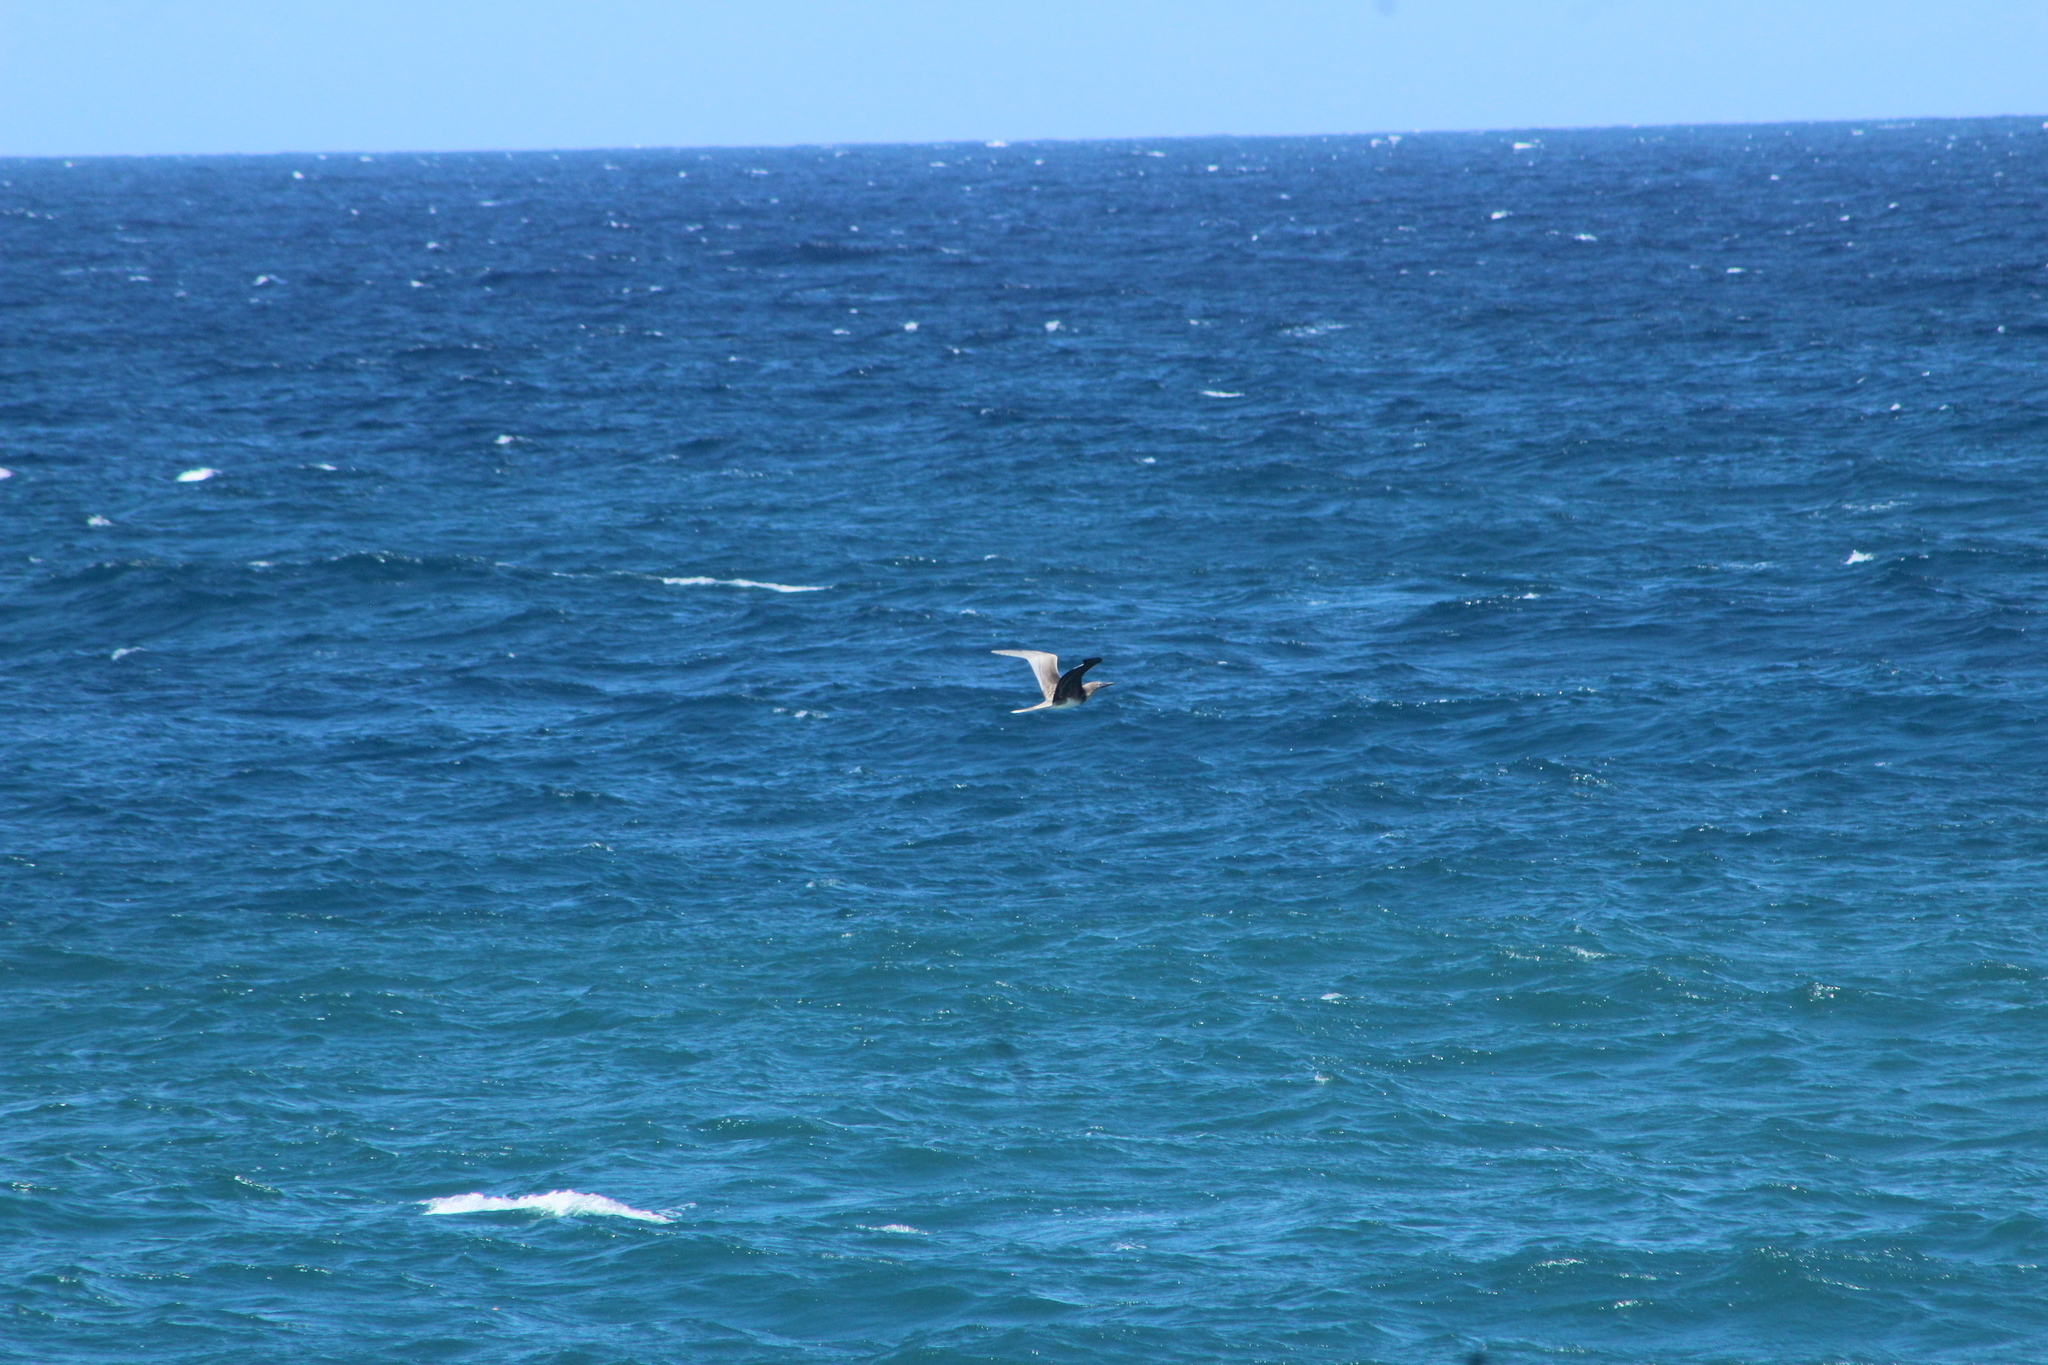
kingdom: Animalia
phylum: Chordata
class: Aves
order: Suliformes
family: Sulidae
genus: Sula
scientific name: Sula sula
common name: Red-footed booby
